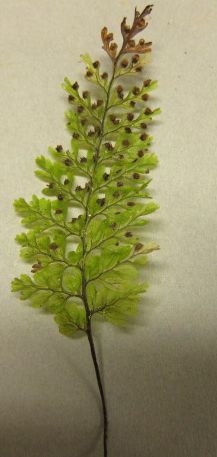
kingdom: Plantae
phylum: Tracheophyta
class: Polypodiopsida
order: Hymenophyllales
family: Hymenophyllaceae
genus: Hymenophyllum
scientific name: Hymenophyllum sanguinolentum
